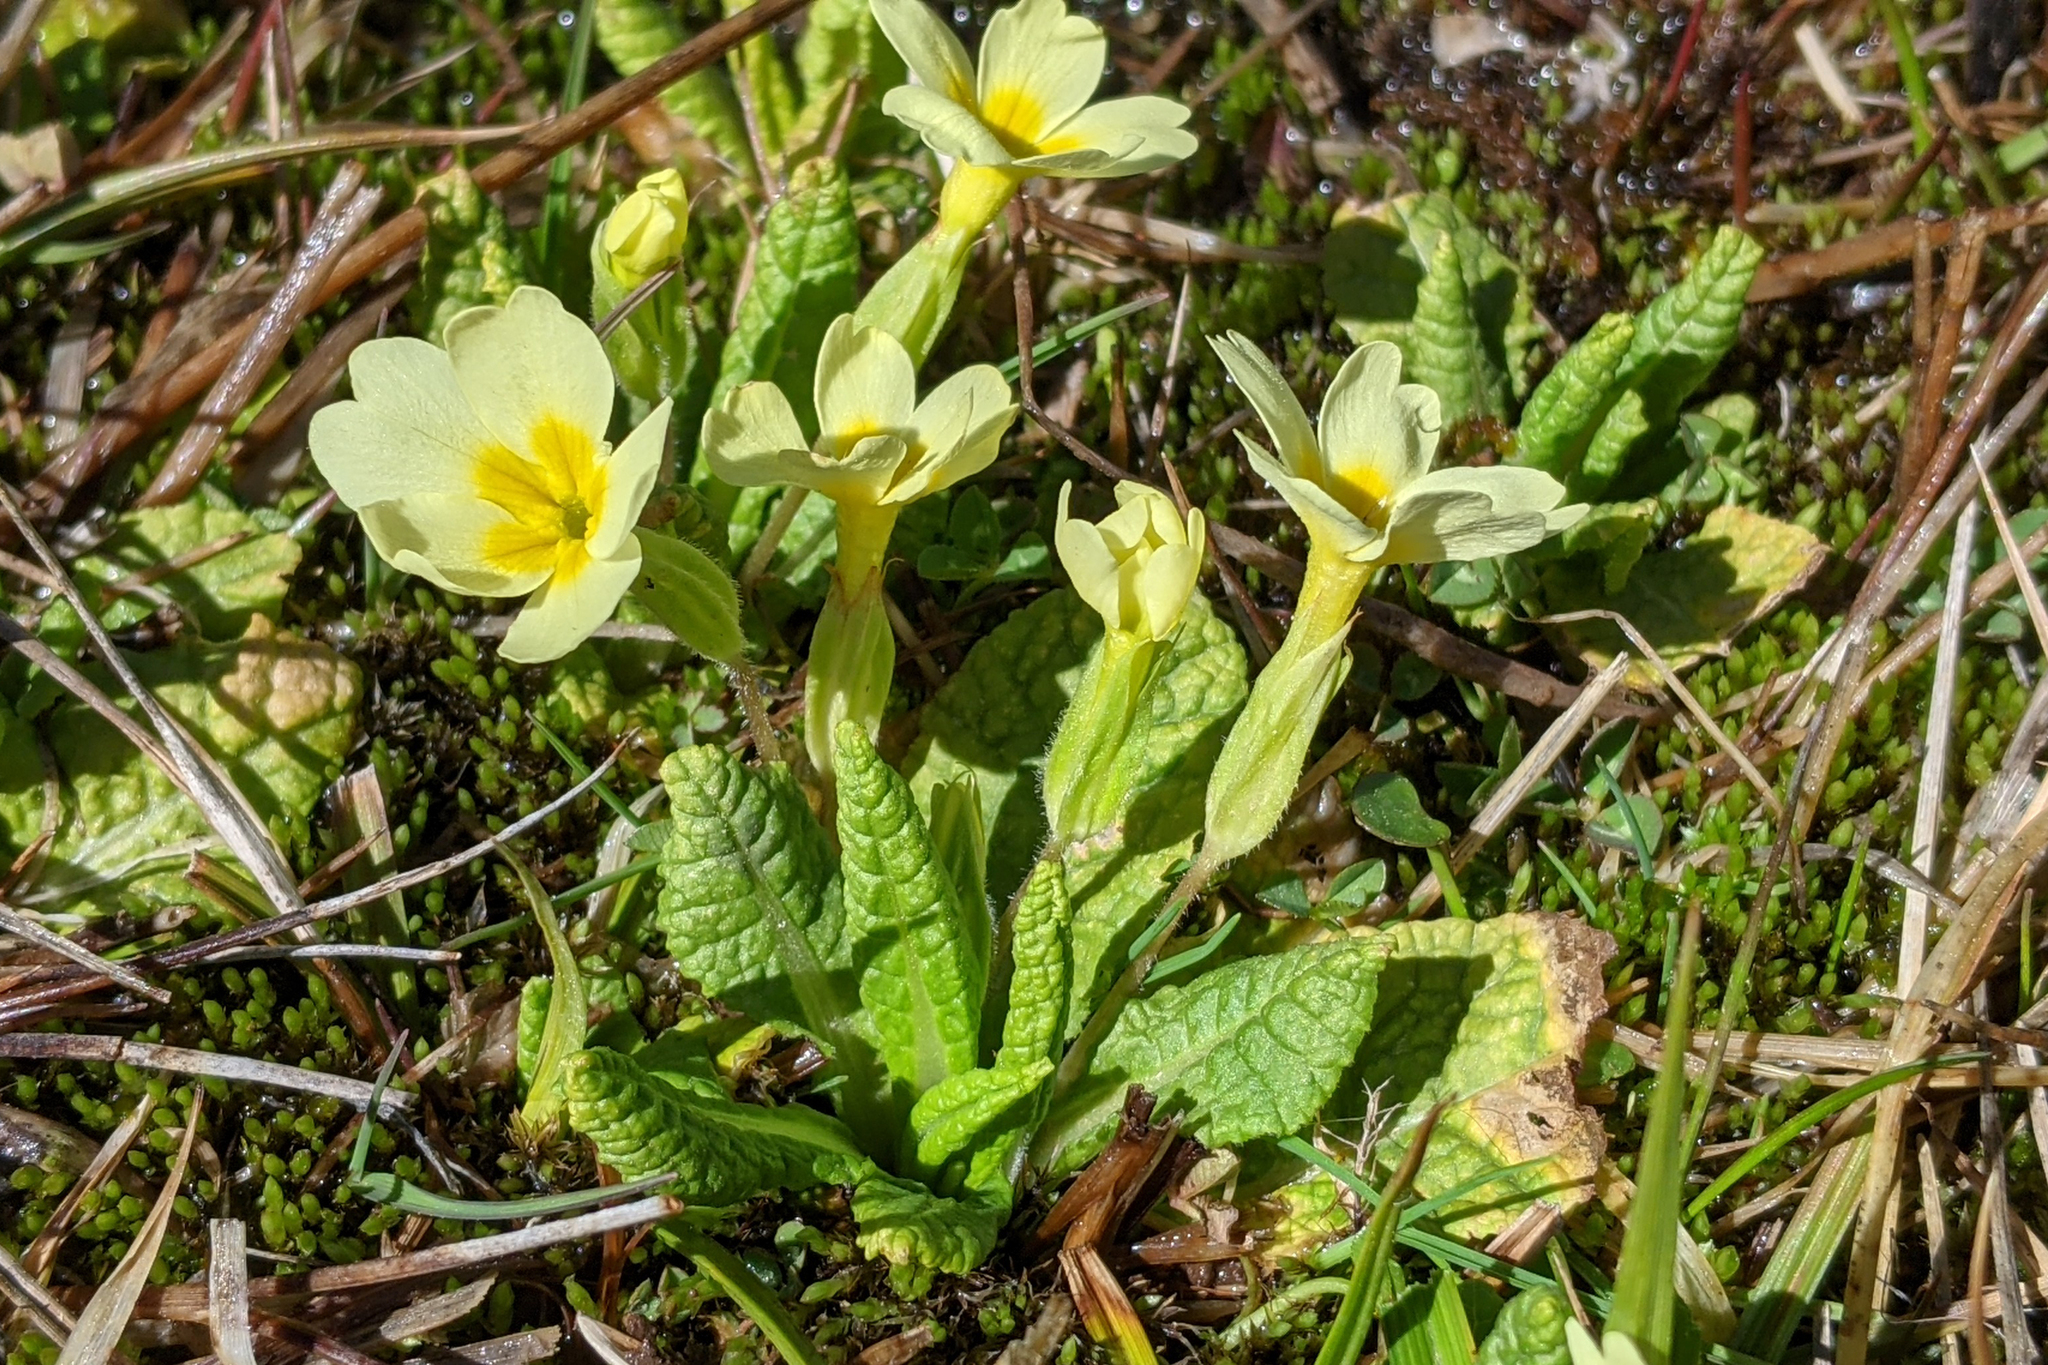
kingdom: Plantae
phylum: Tracheophyta
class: Magnoliopsida
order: Ericales
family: Primulaceae
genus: Primula
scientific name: Primula vulgaris
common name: Primrose
